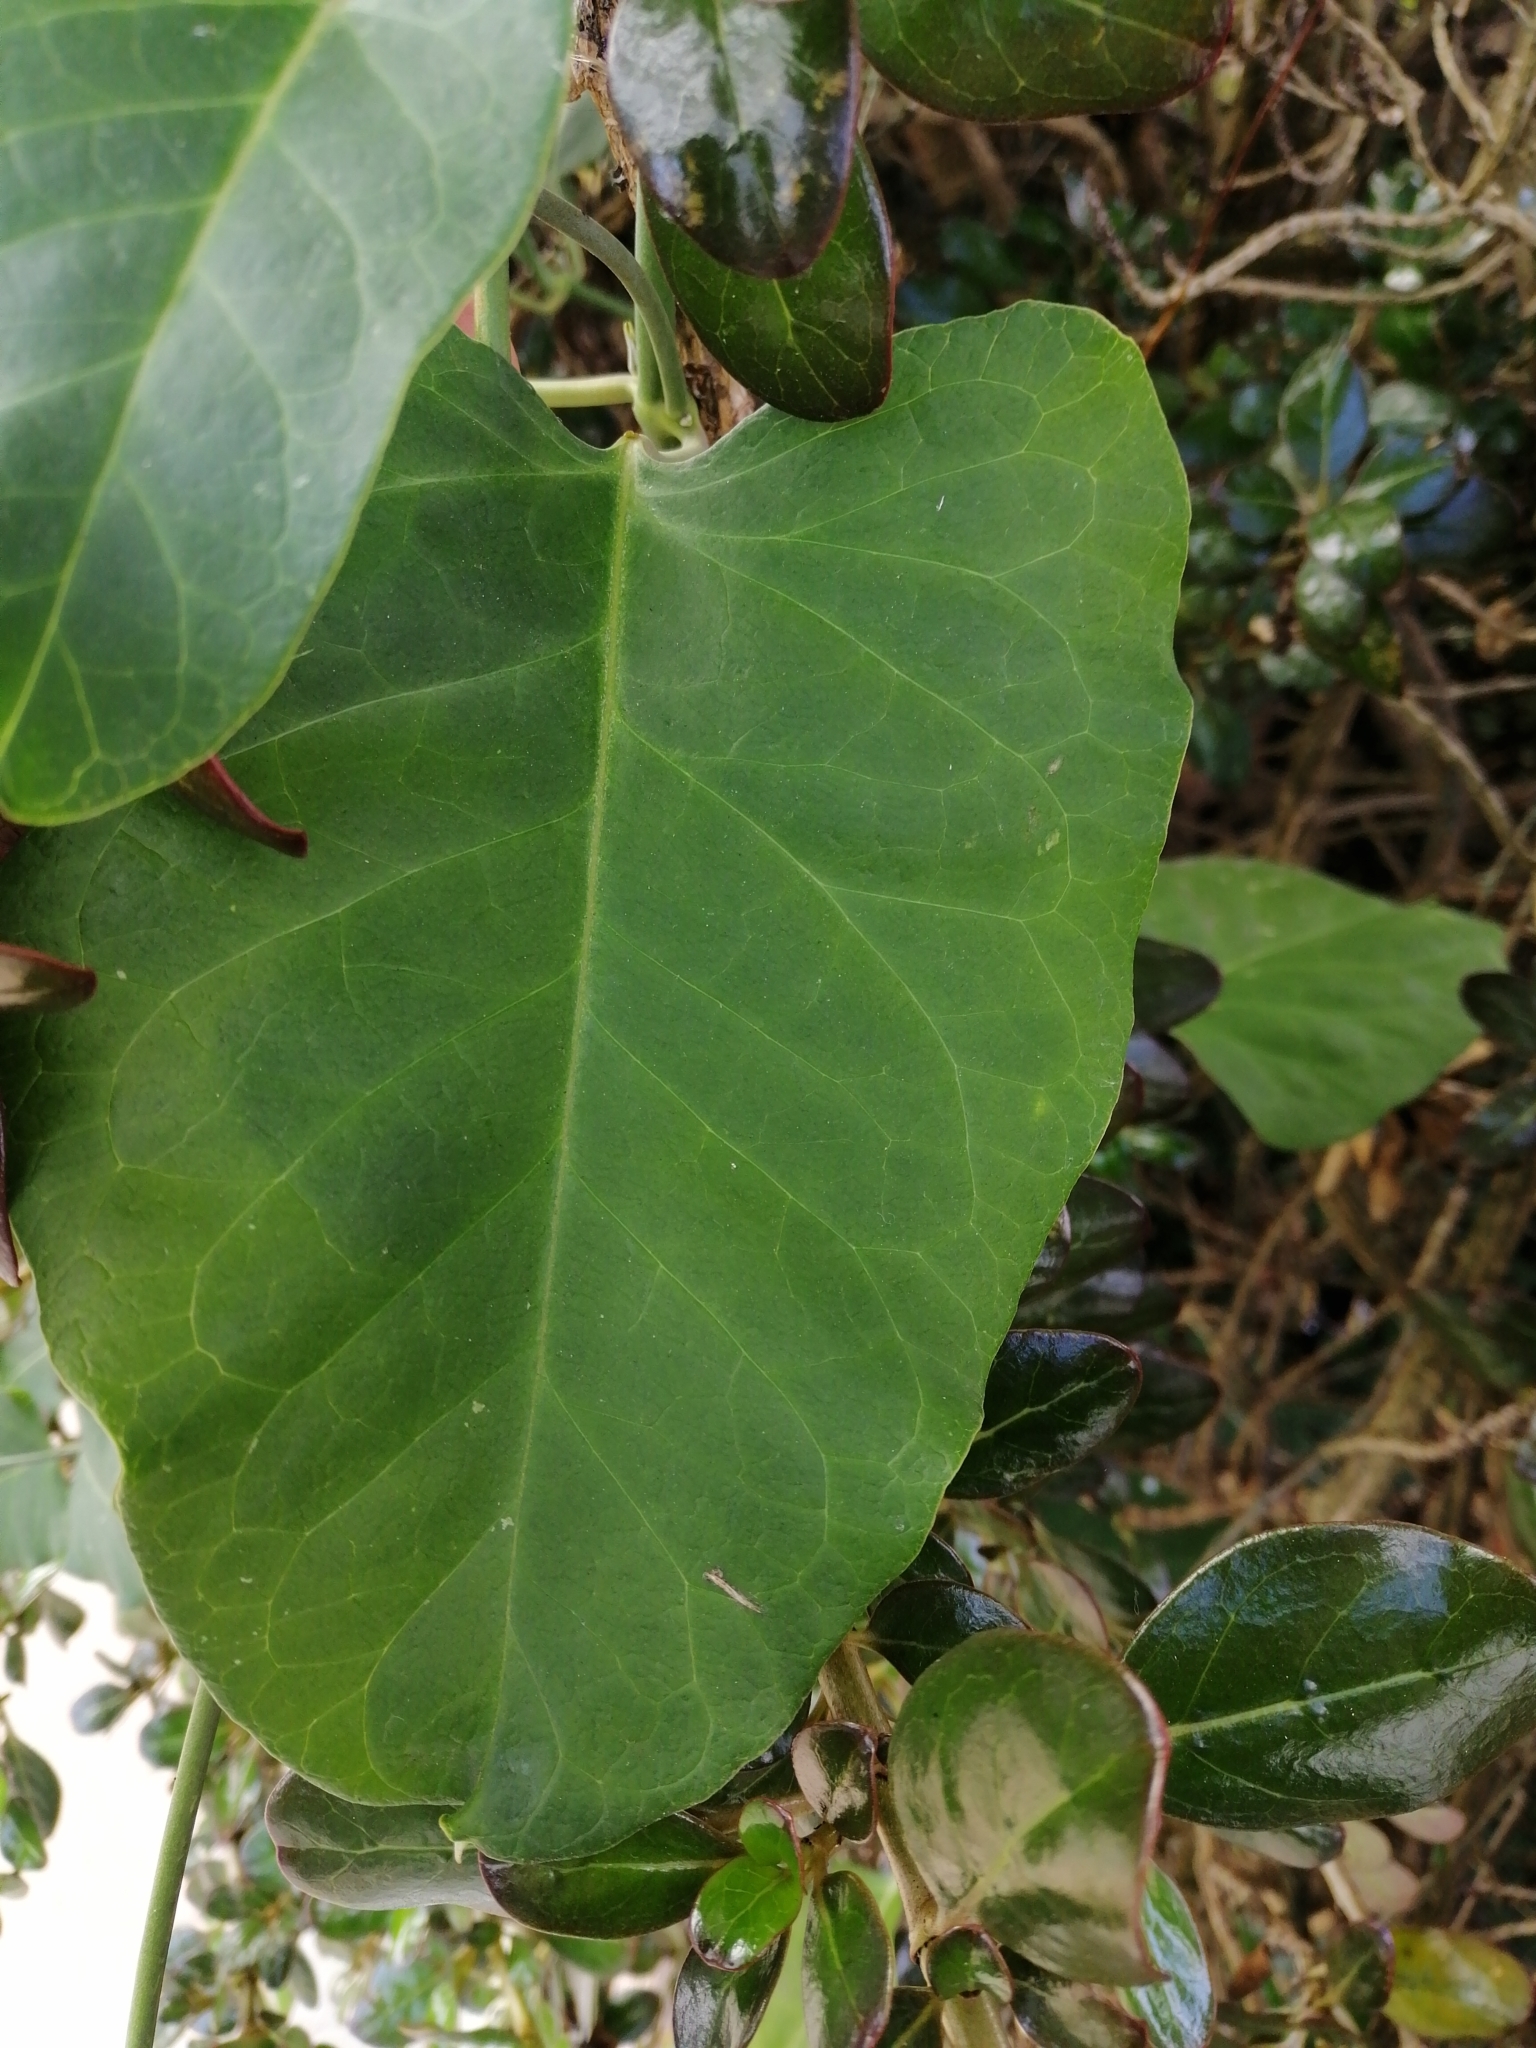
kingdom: Plantae
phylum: Tracheophyta
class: Magnoliopsida
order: Gentianales
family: Apocynaceae
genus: Araujia
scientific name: Araujia sericifera
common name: White bladderflower
